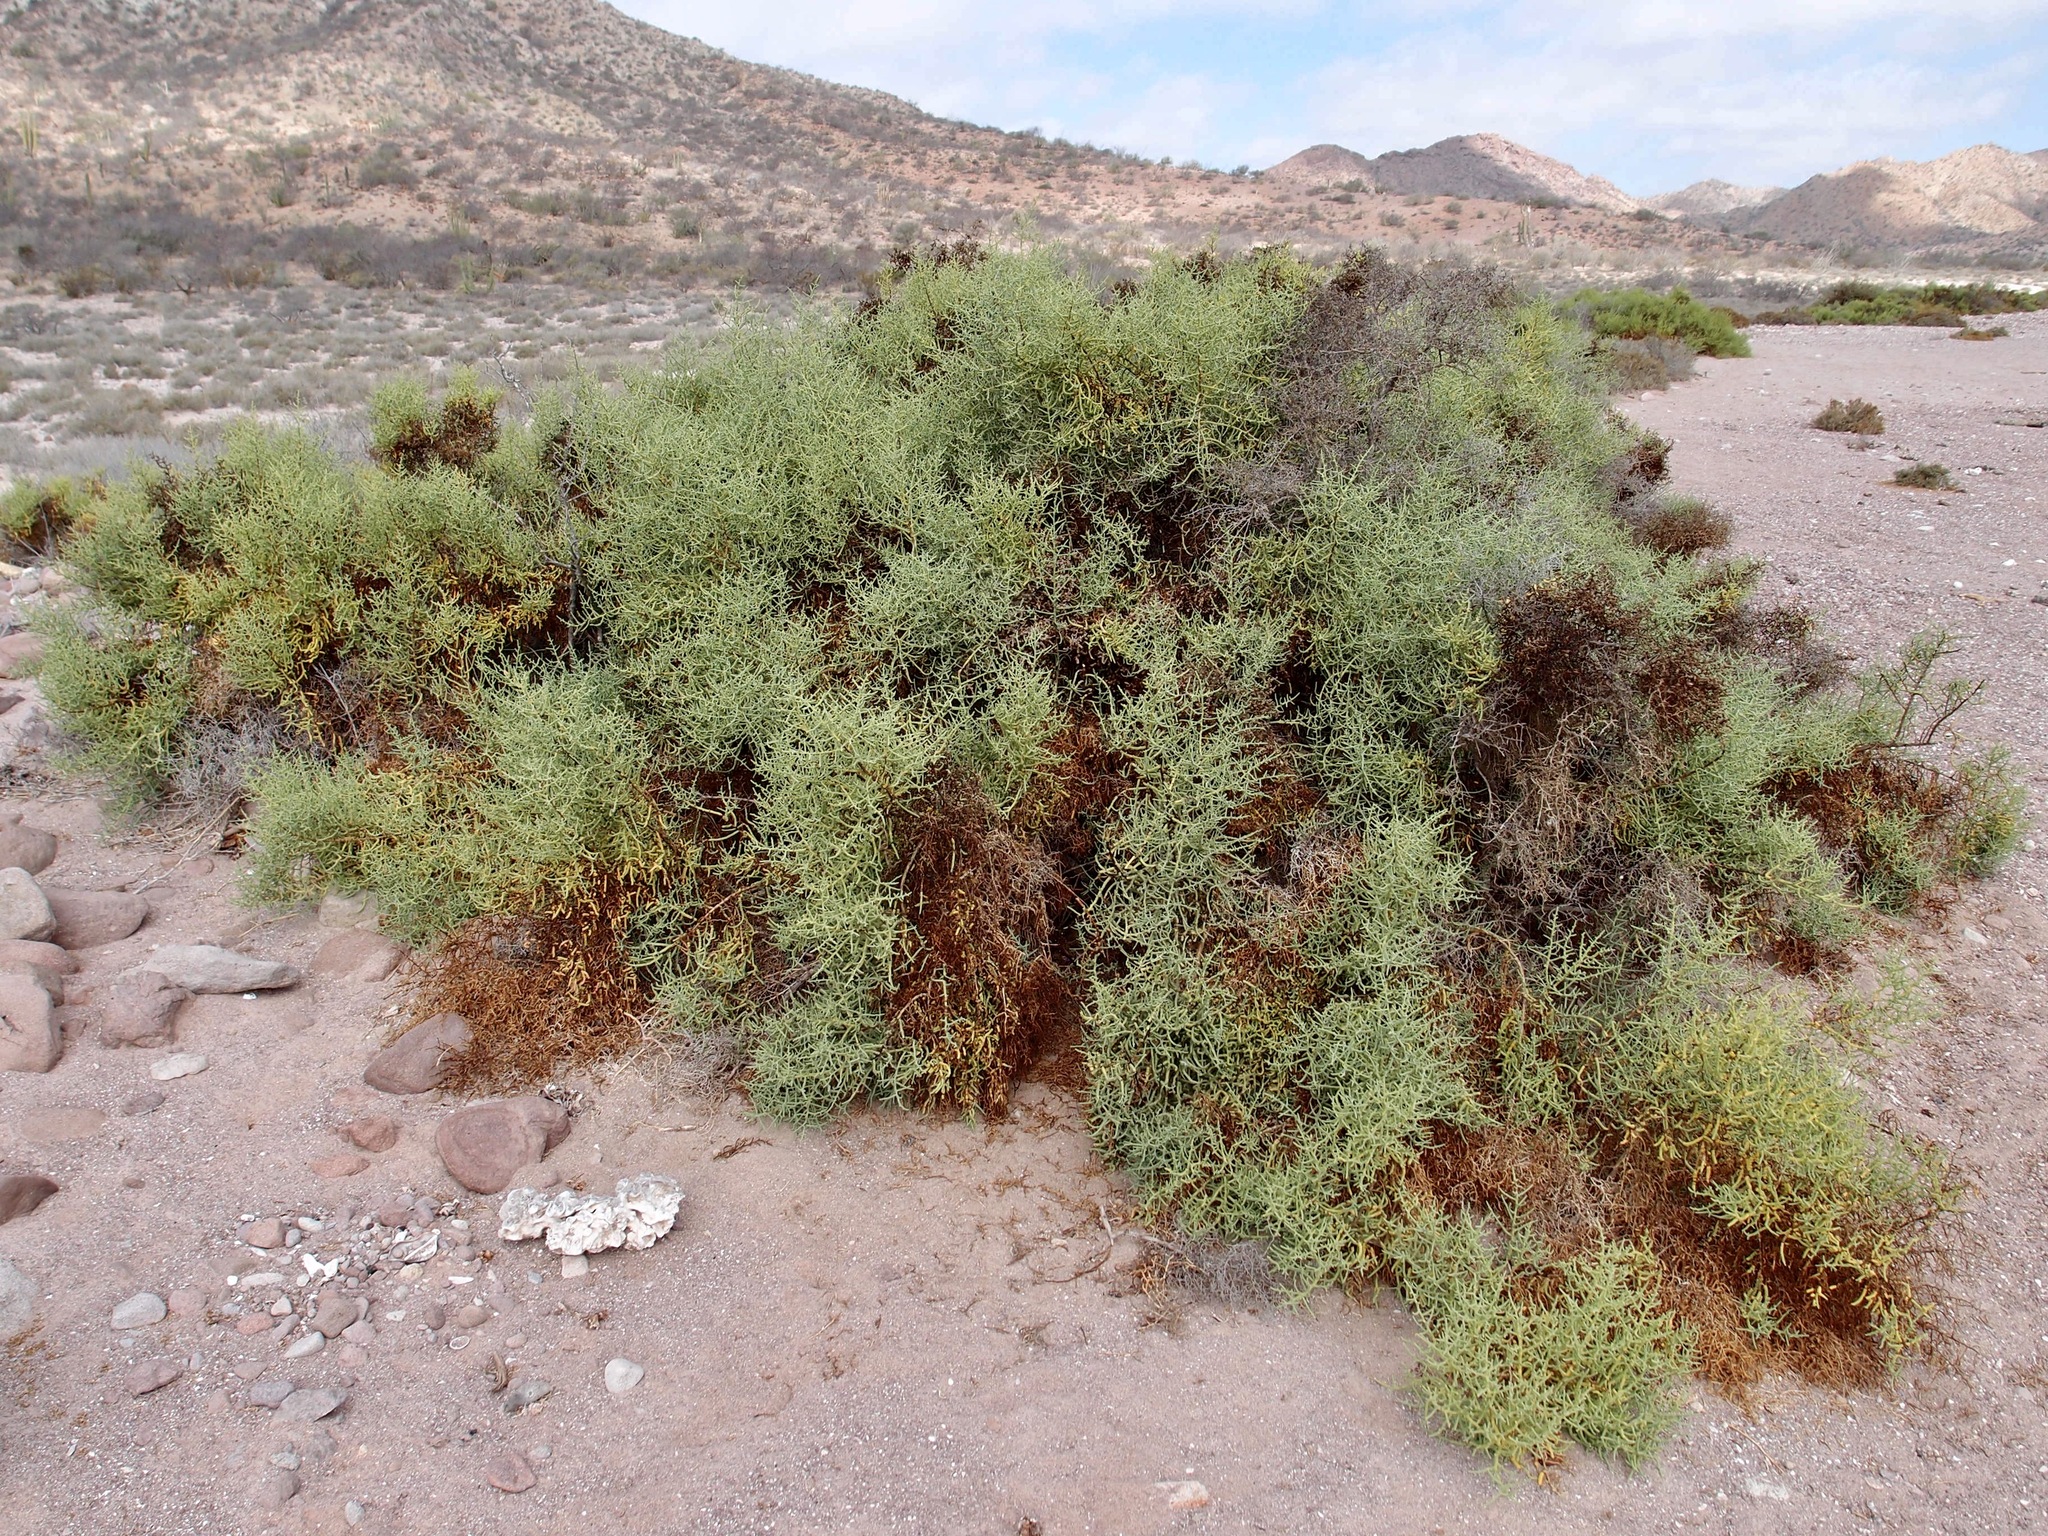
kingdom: Plantae
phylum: Tracheophyta
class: Magnoliopsida
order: Caryophyllales
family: Amaranthaceae
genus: Allenrolfea
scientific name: Allenrolfea occidentalis
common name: Iodine-bush
